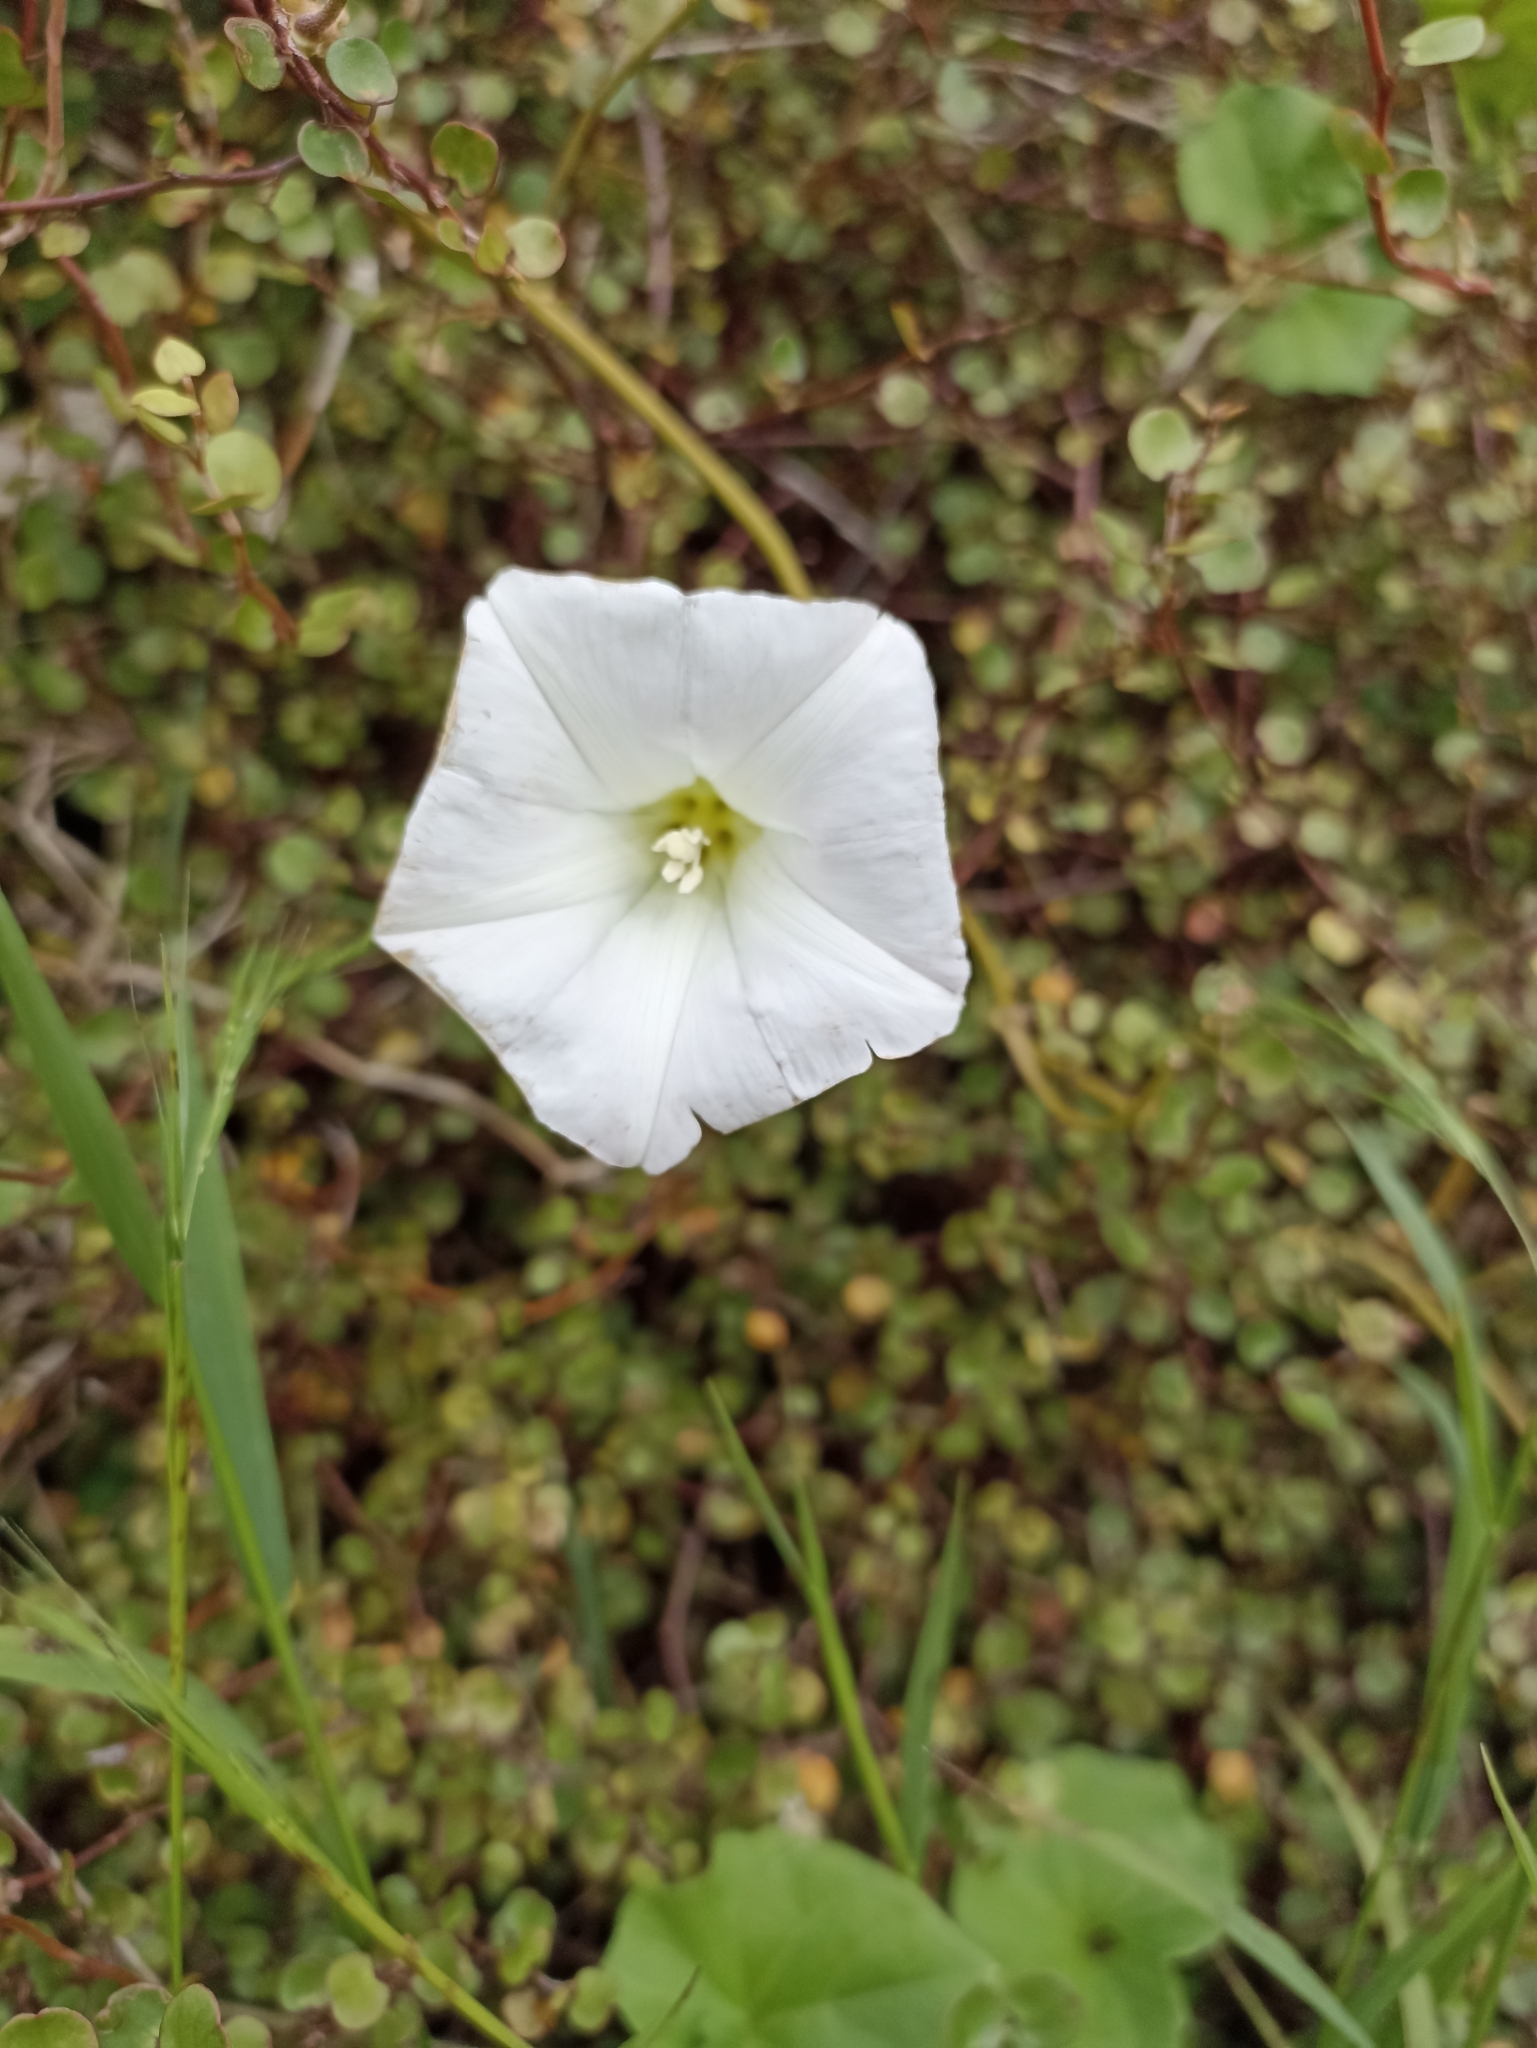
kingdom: Plantae
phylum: Tracheophyta
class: Magnoliopsida
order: Solanales
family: Convolvulaceae
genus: Calystegia
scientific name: Calystegia tuguriorum
